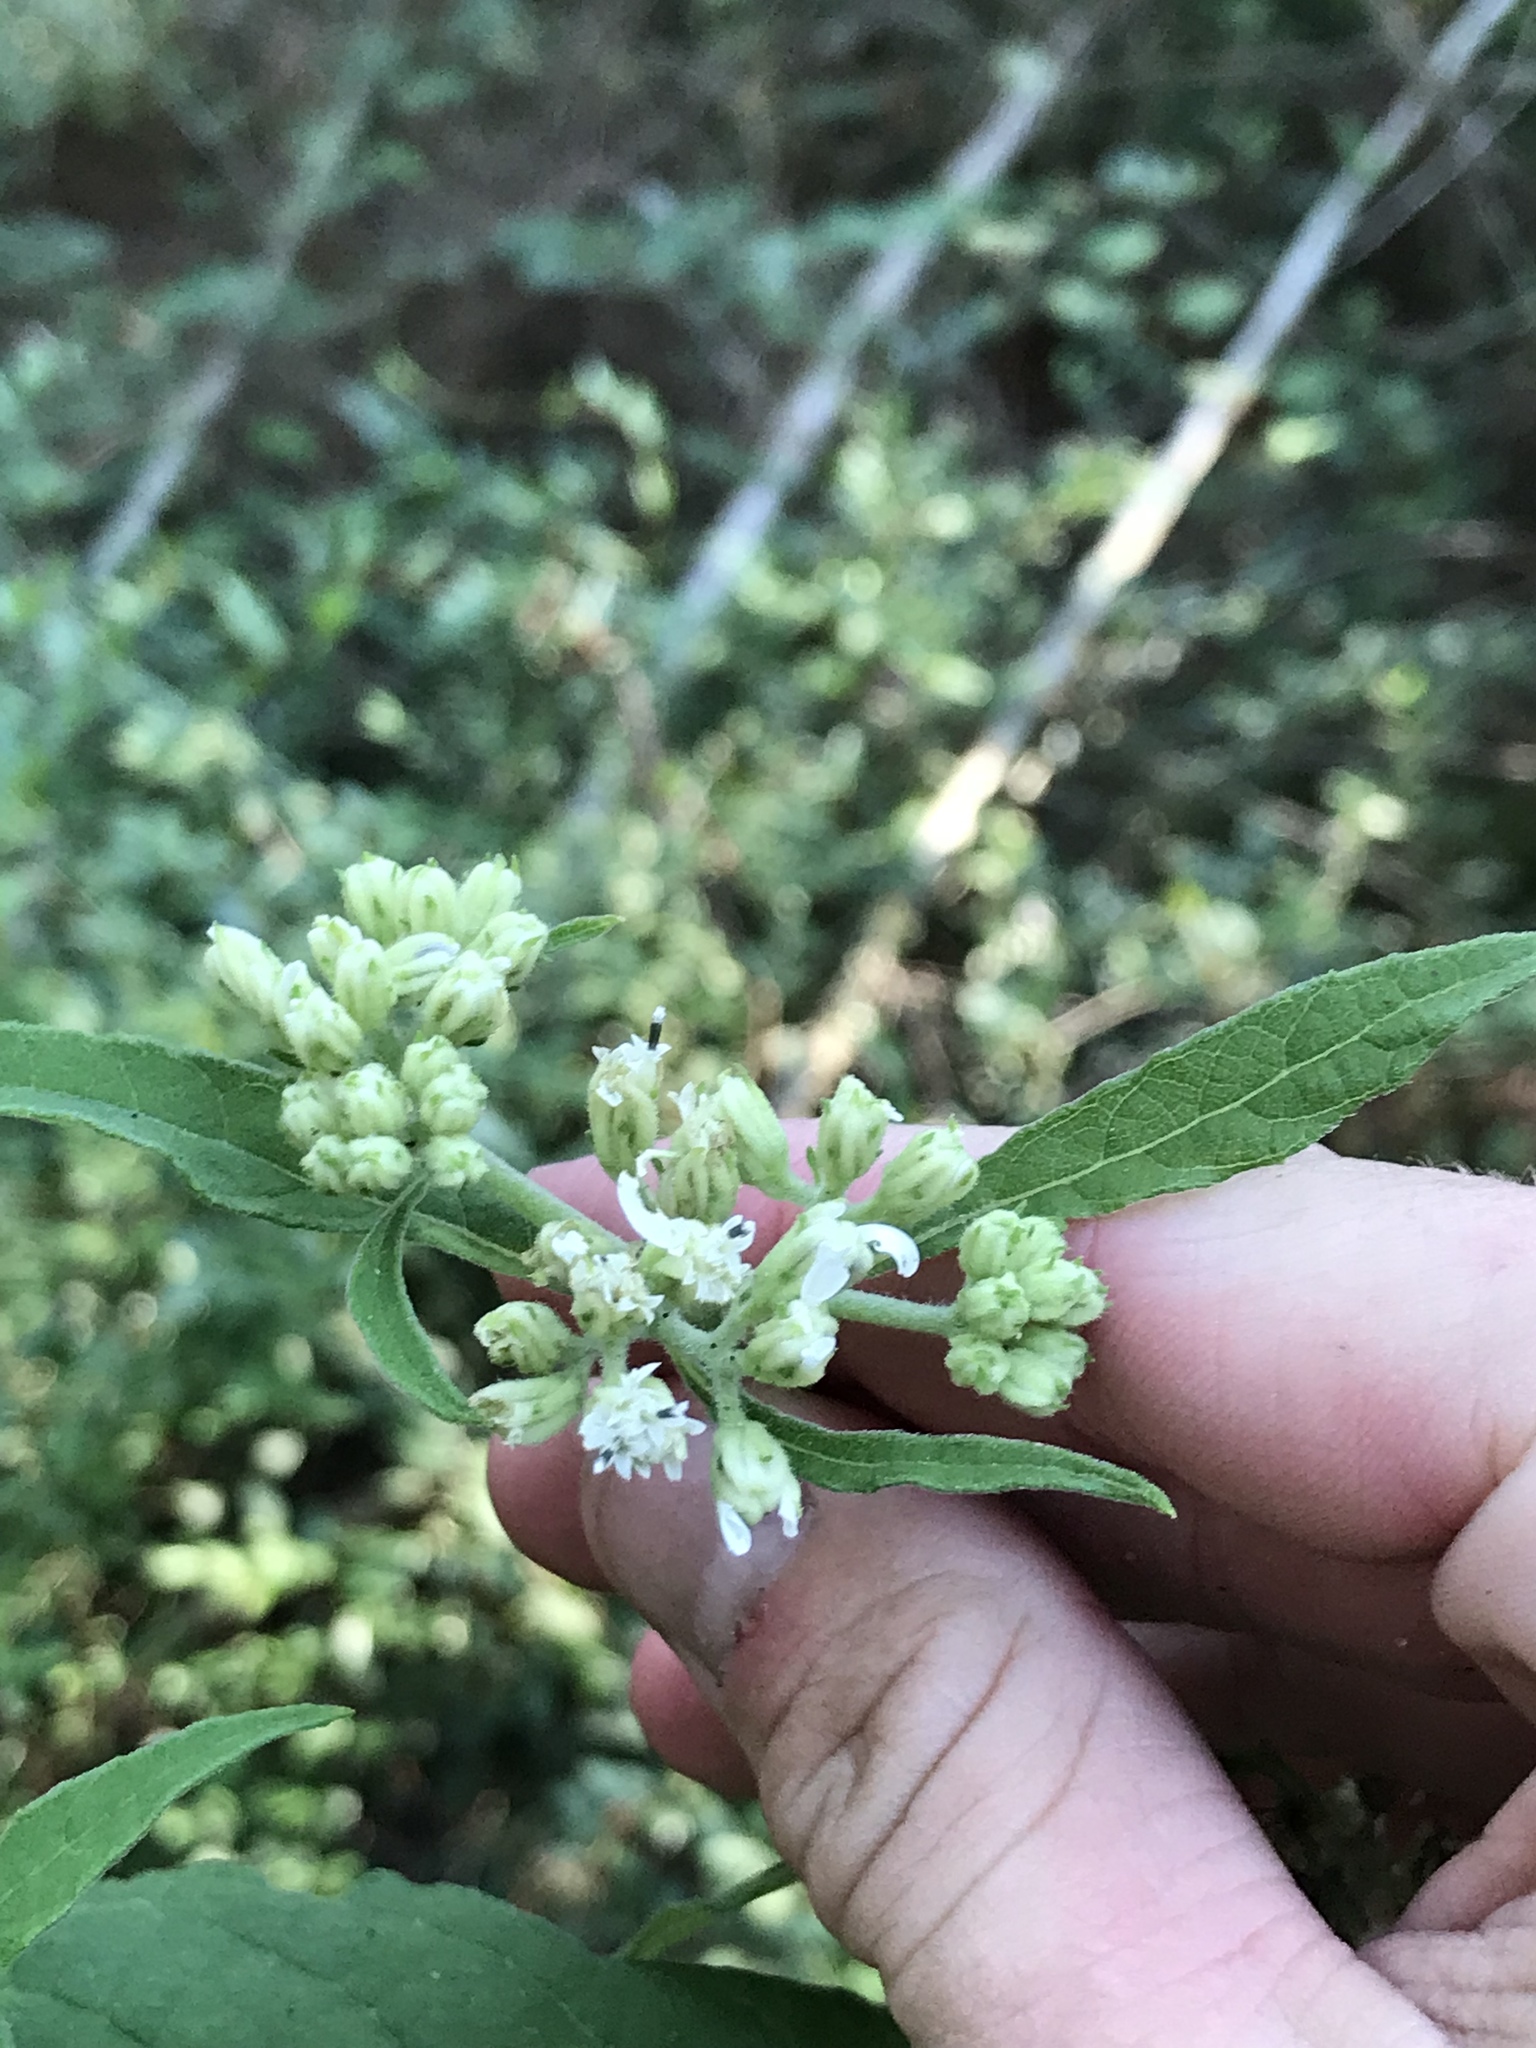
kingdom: Plantae
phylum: Tracheophyta
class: Magnoliopsida
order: Asterales
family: Asteraceae
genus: Verbesina
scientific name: Verbesina virginica
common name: Frostweed
